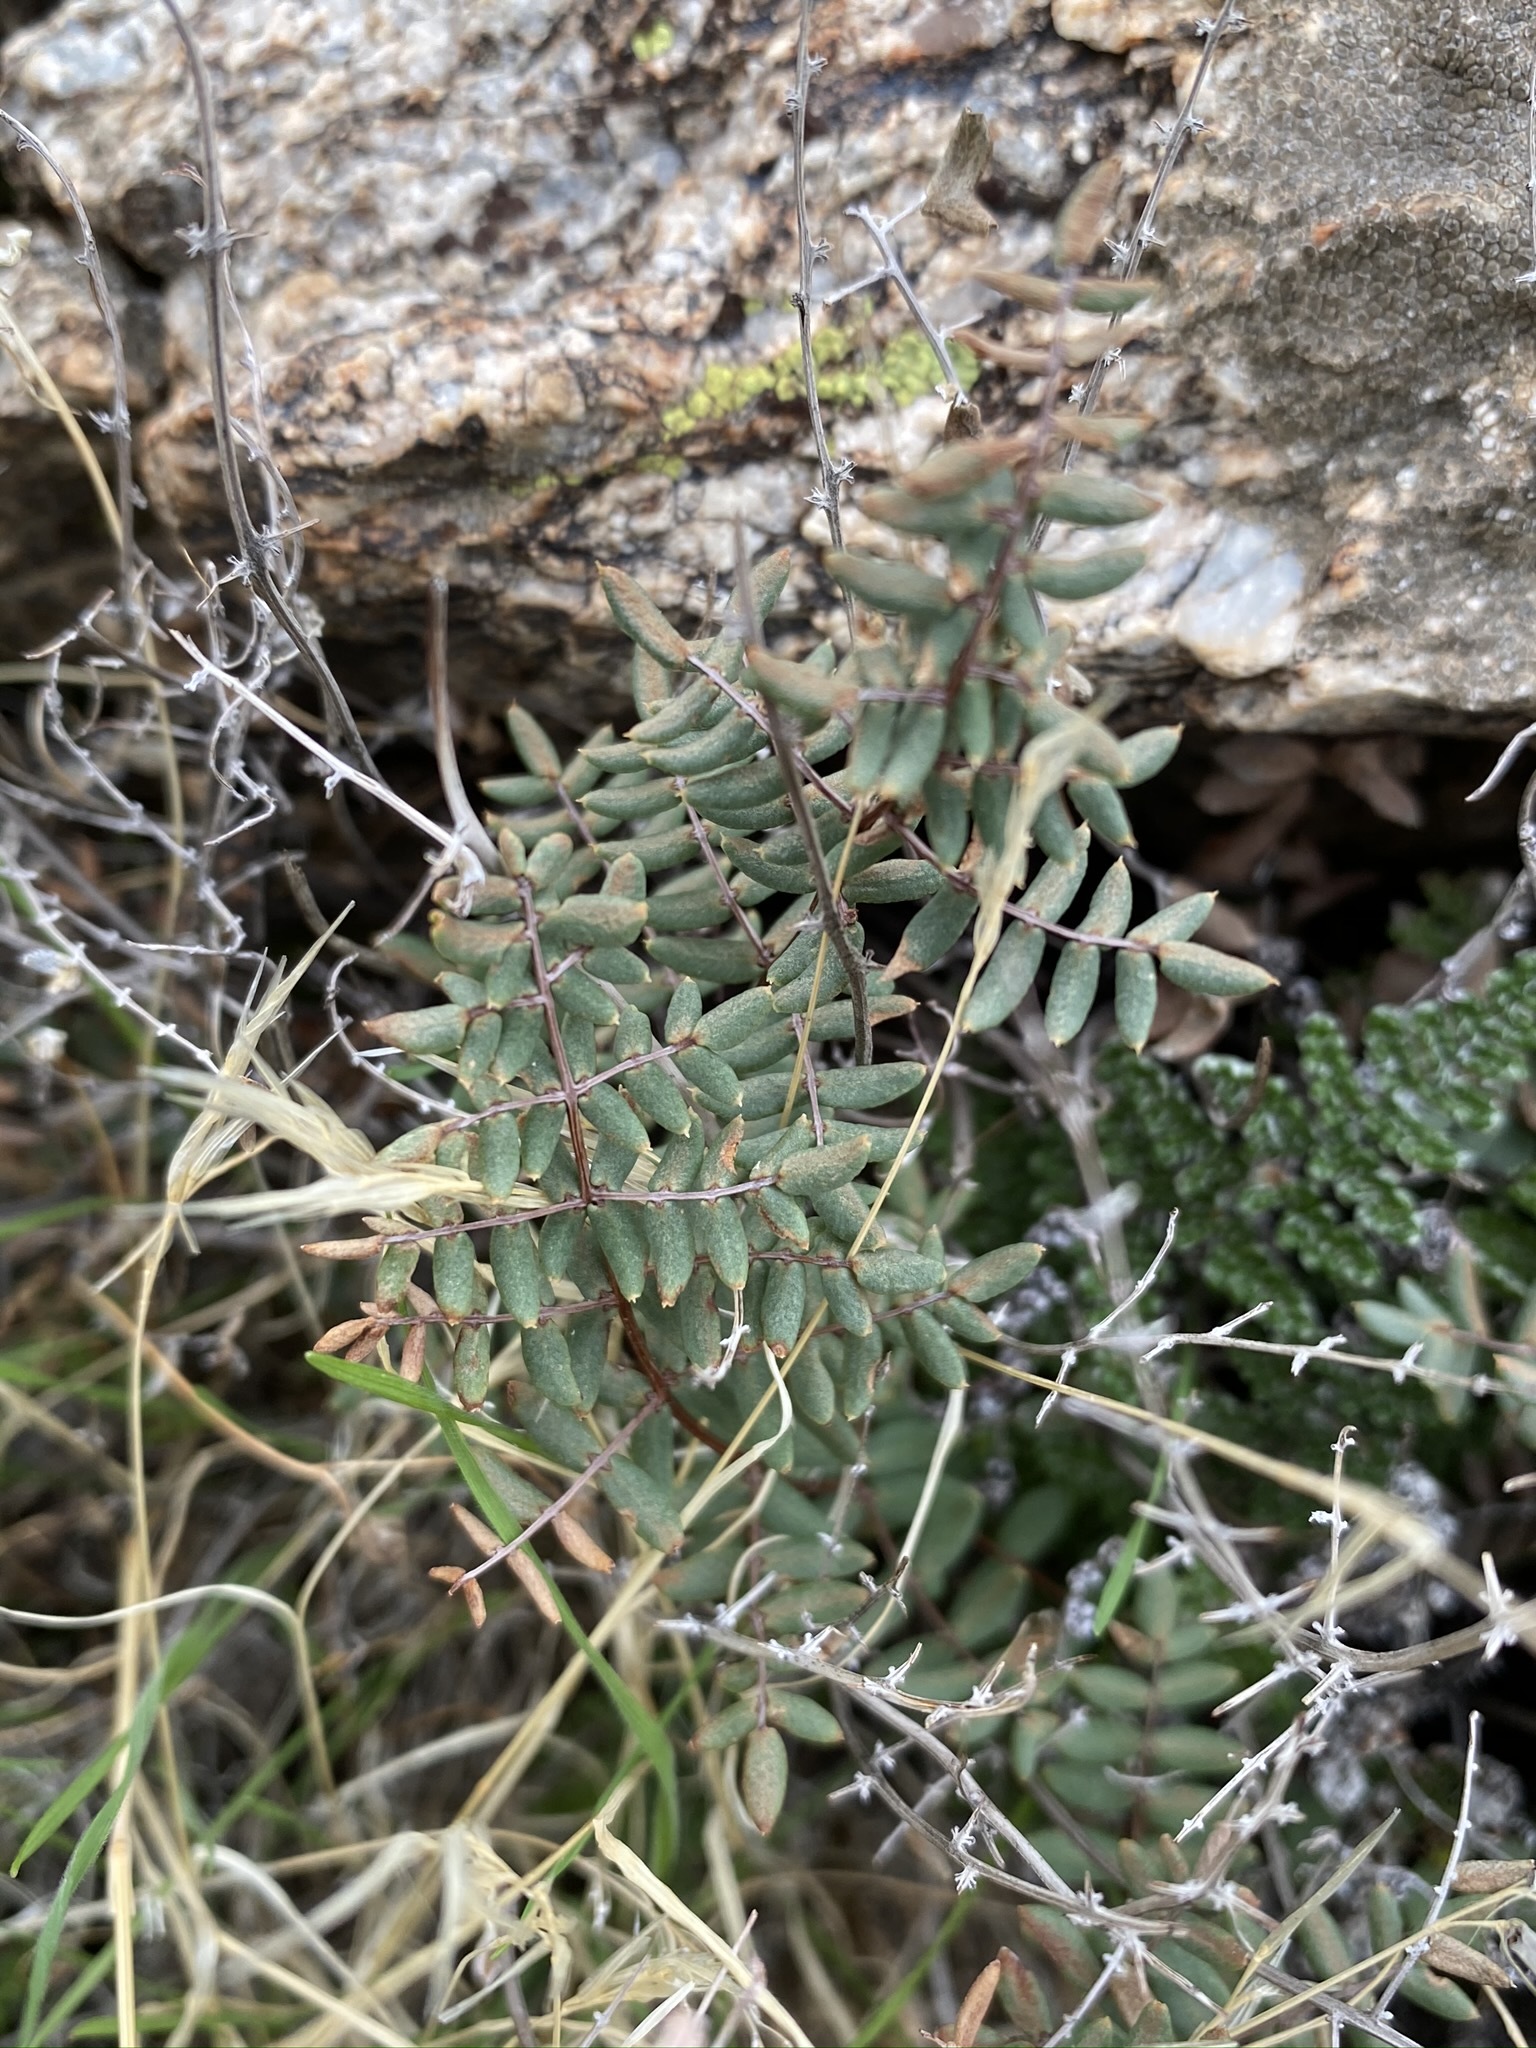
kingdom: Plantae
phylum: Tracheophyta
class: Polypodiopsida
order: Polypodiales
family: Pteridaceae
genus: Pellaea
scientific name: Pellaea mucronata
